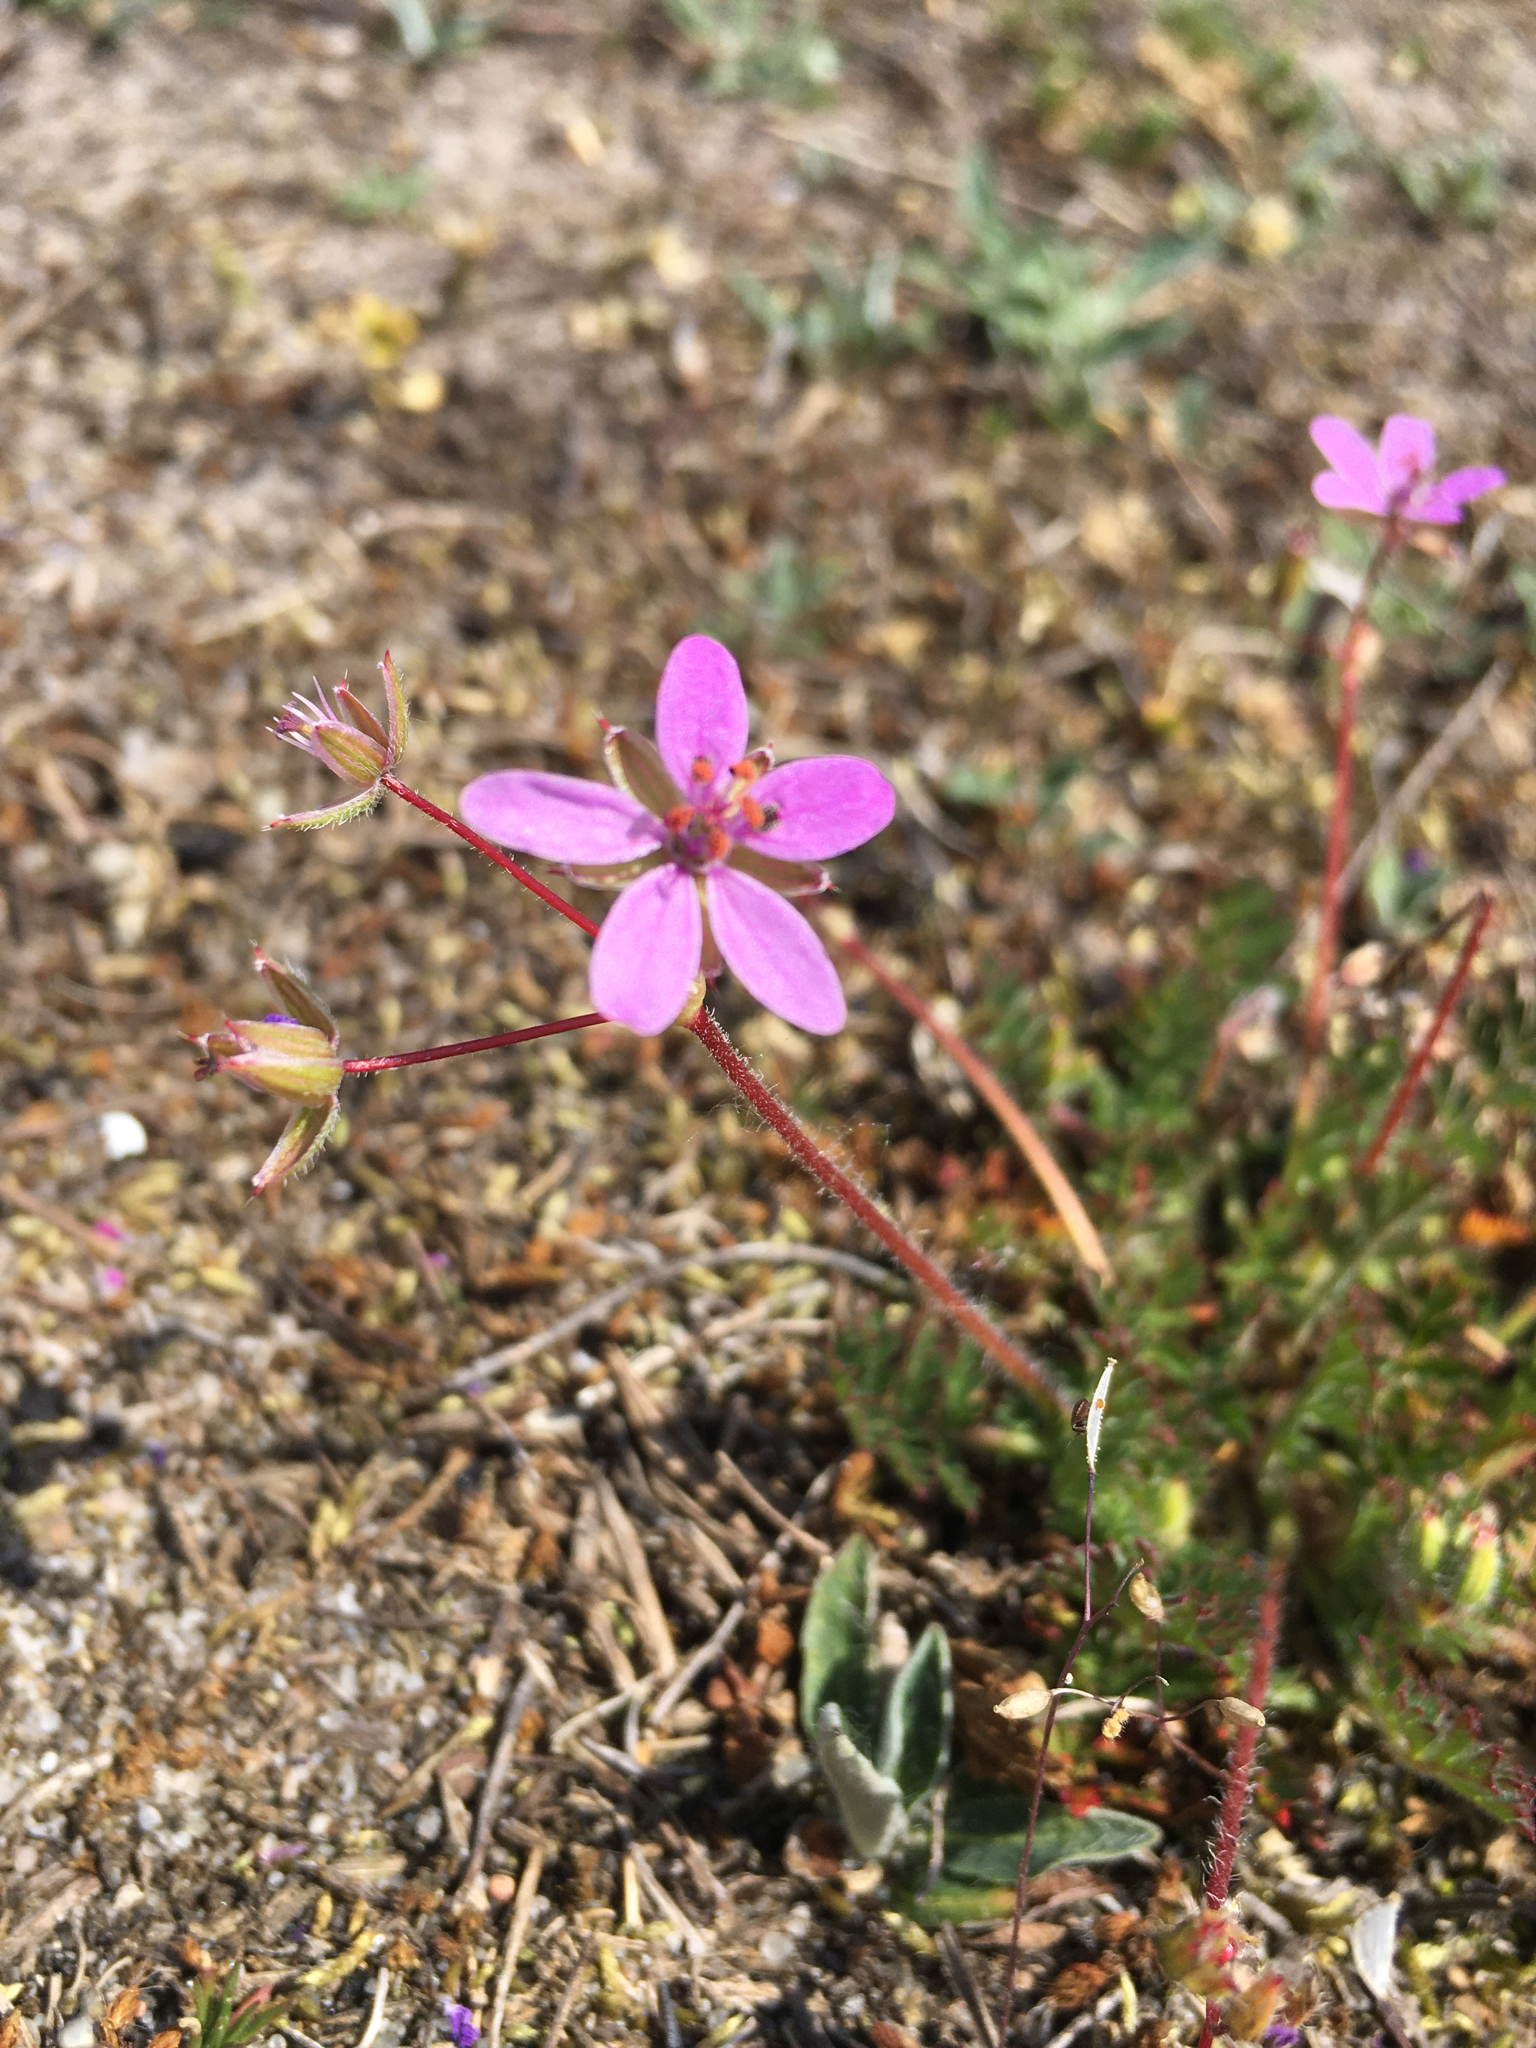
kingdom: Plantae
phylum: Tracheophyta
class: Magnoliopsida
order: Geraniales
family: Geraniaceae
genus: Erodium
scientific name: Erodium cicutarium
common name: Common stork's-bill
